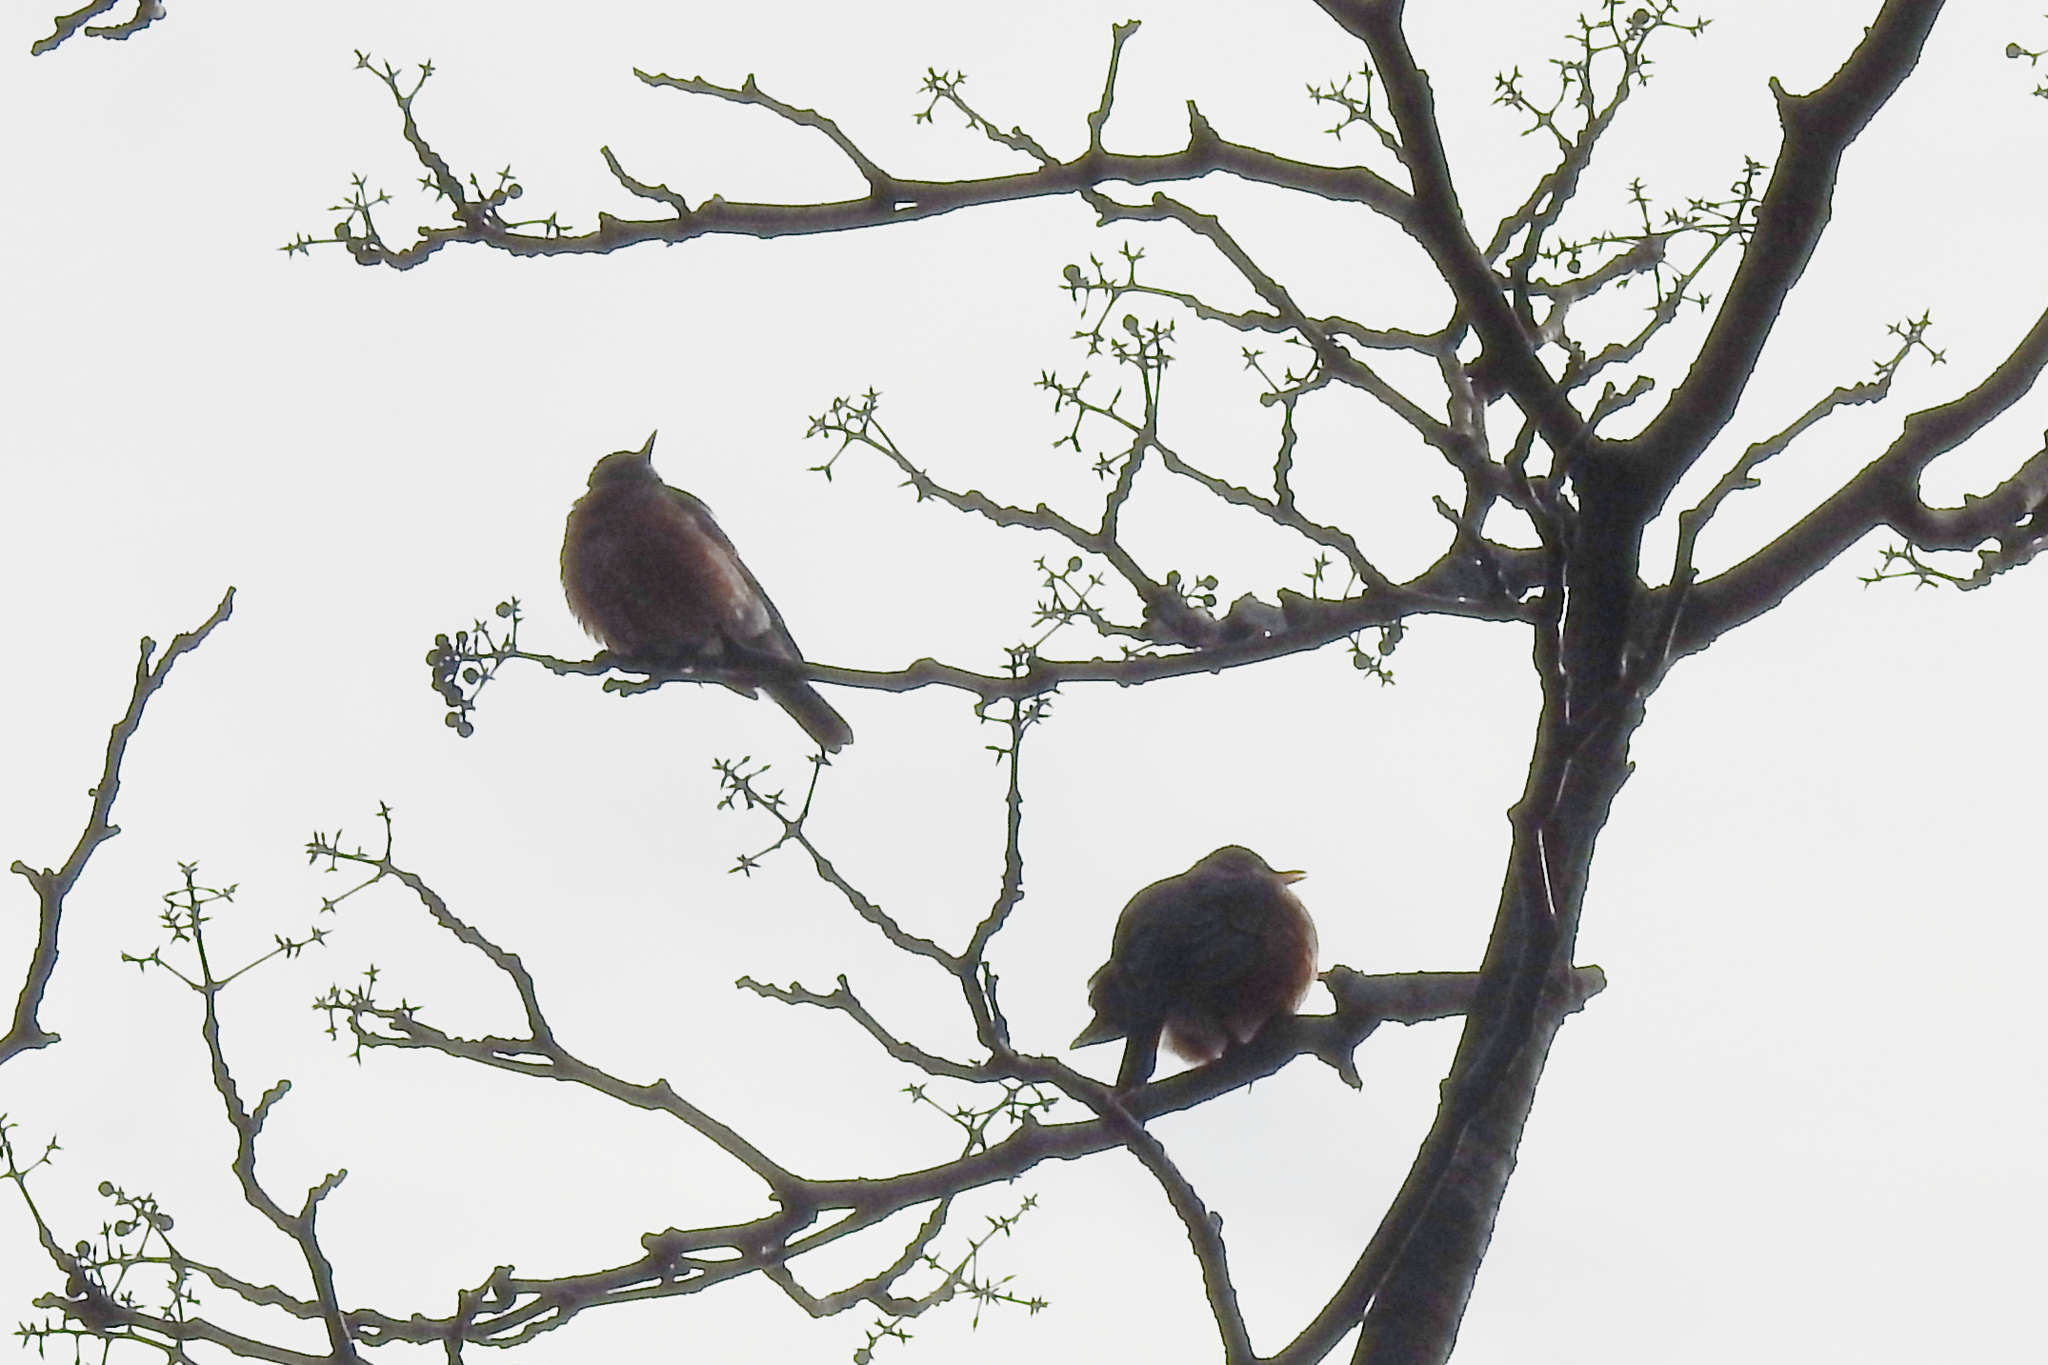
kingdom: Animalia
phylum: Chordata
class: Aves
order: Passeriformes
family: Turdidae
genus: Turdus
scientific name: Turdus migratorius
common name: American robin
